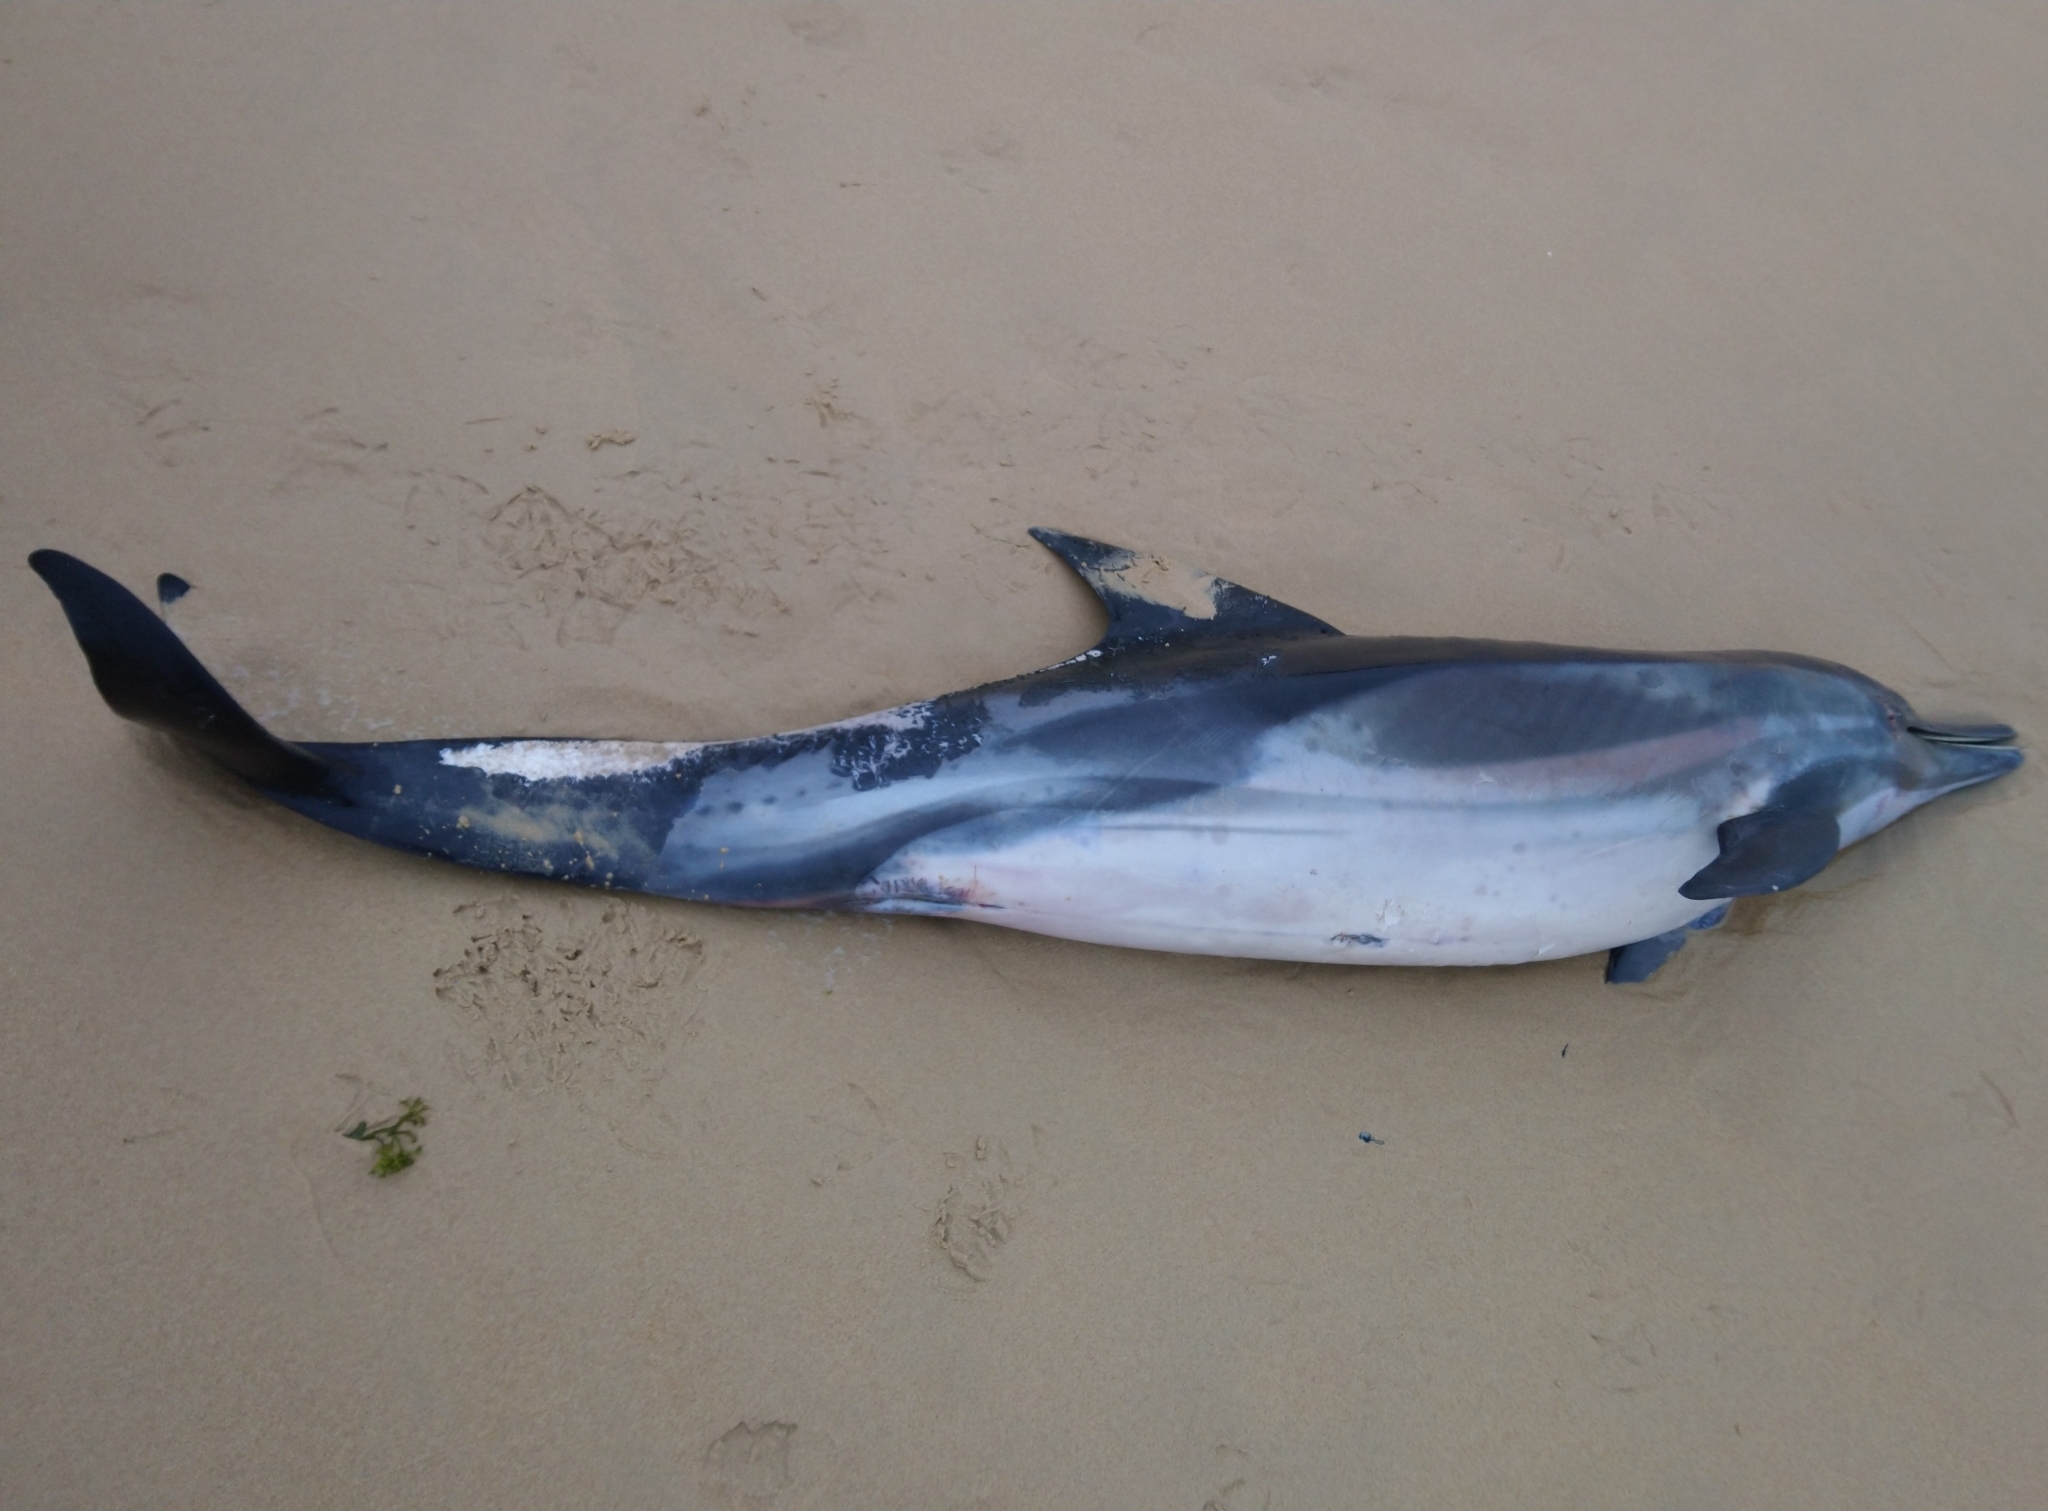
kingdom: Animalia
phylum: Chordata
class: Mammalia
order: Cetacea
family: Delphinidae
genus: Delphinus
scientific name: Delphinus delphis
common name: Common dolphin
